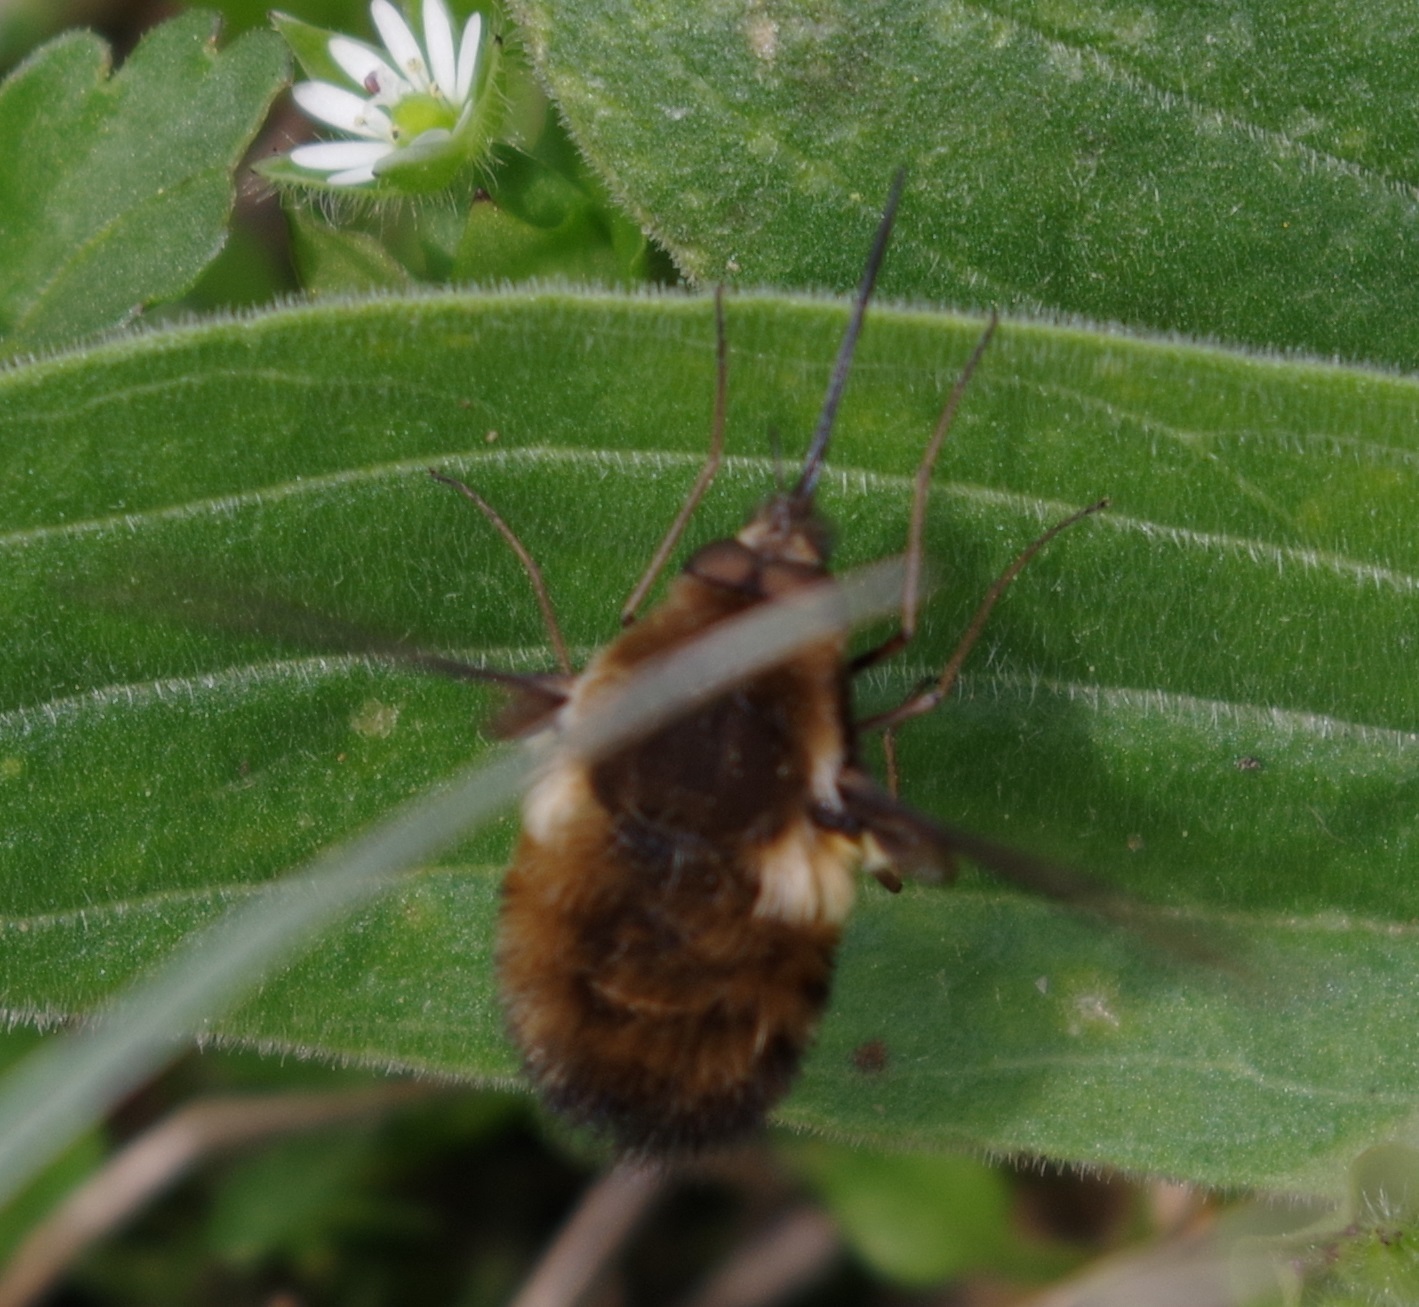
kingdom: Animalia
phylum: Arthropoda
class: Insecta
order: Diptera
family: Bombyliidae
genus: Bombylius
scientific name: Bombylius discolor
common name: Dotted bee-fly
